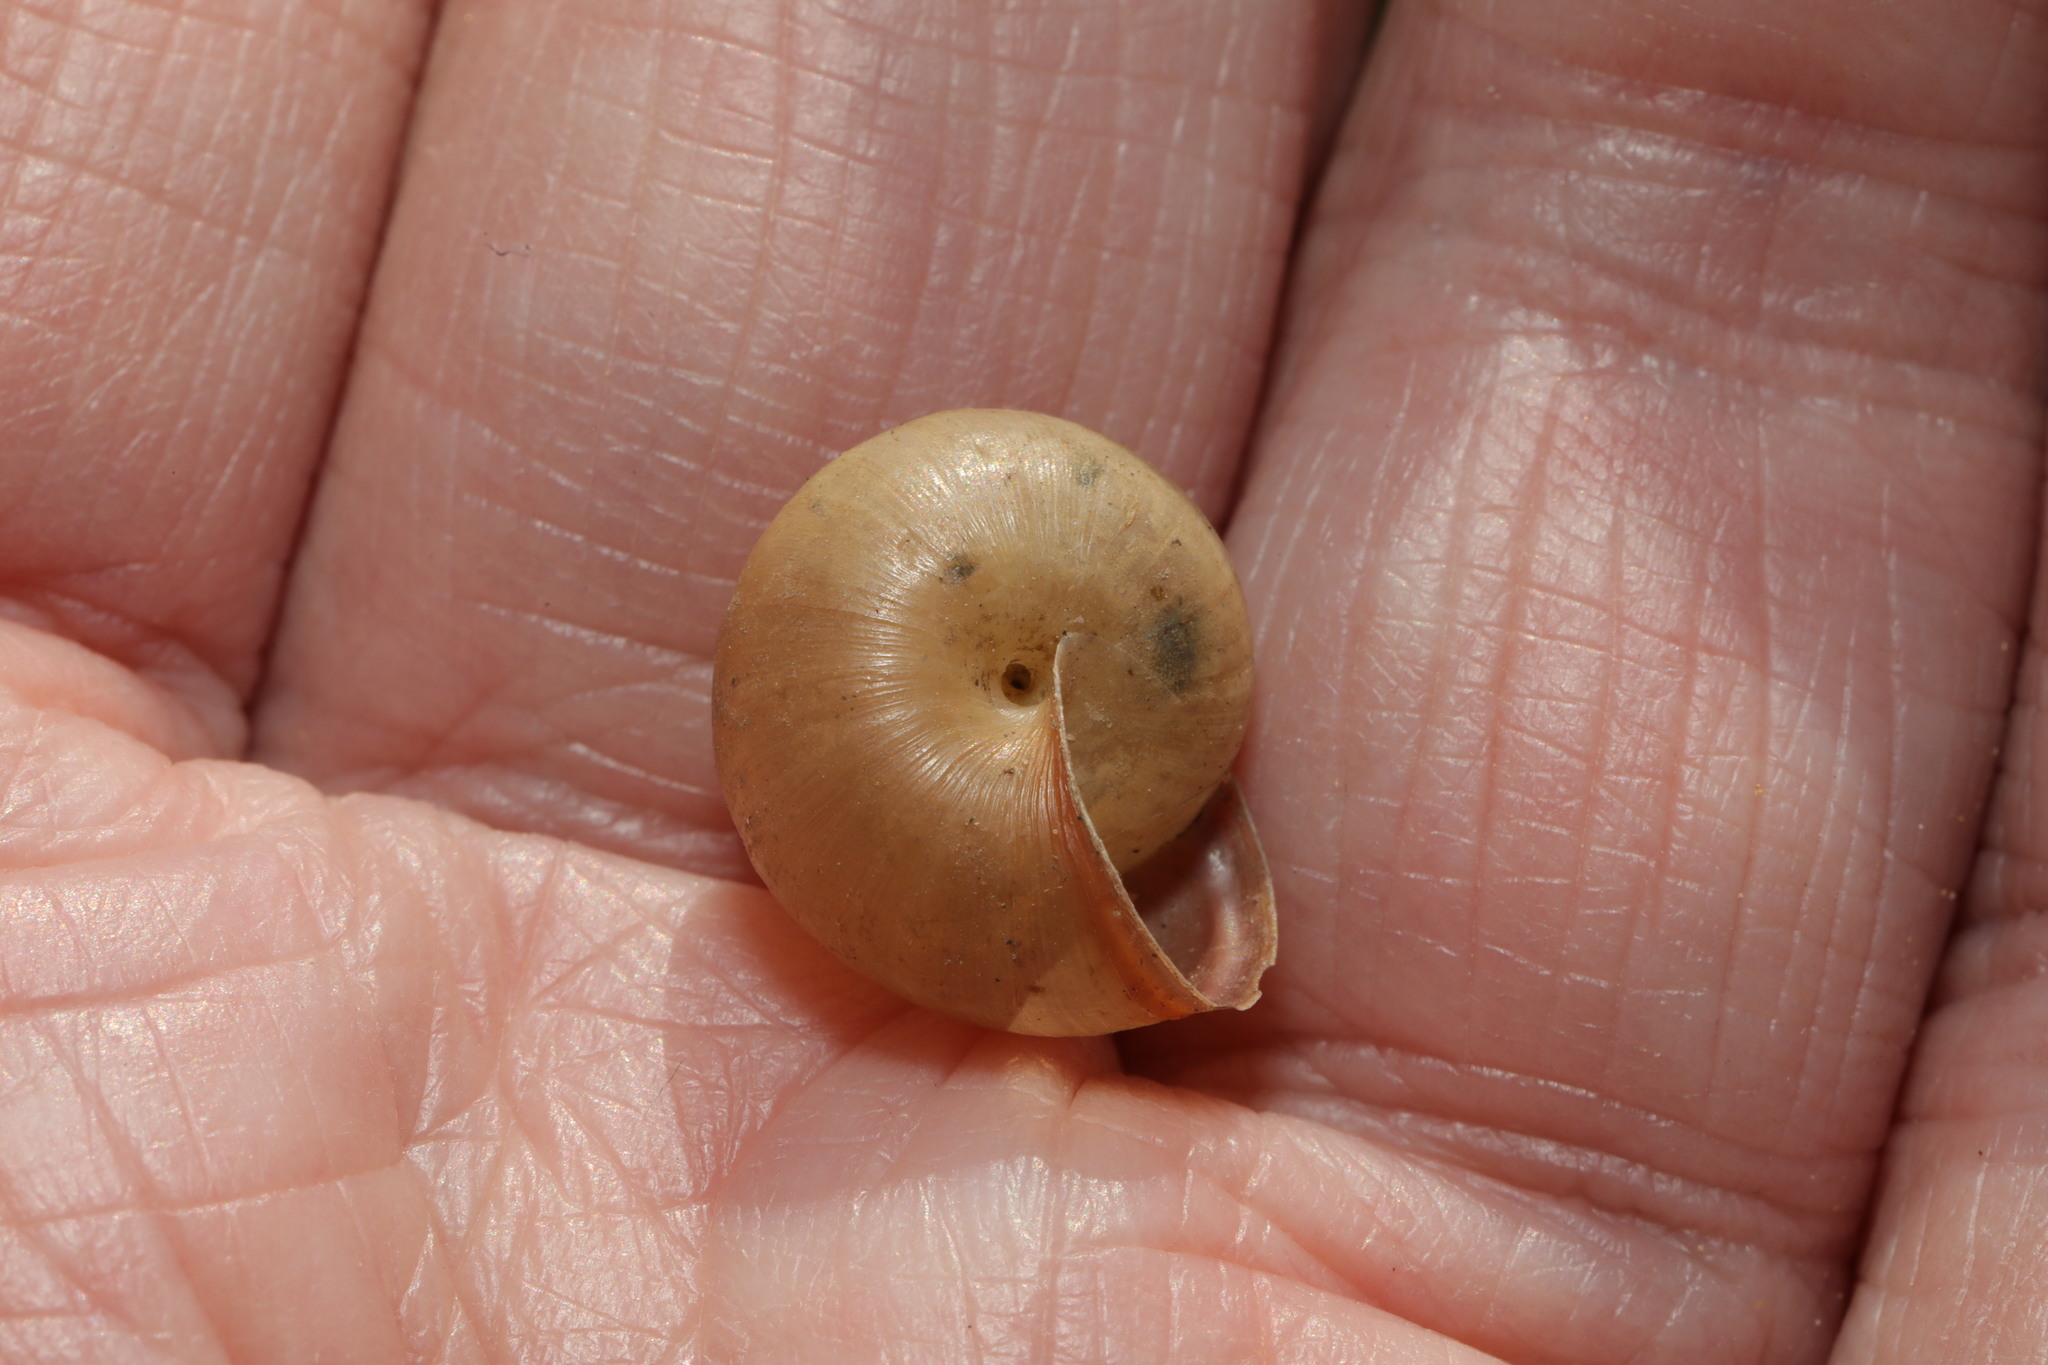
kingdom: Animalia
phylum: Mollusca
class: Gastropoda
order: Stylommatophora
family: Hygromiidae
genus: Monacha
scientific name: Monacha cantiana
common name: Kentish snail
